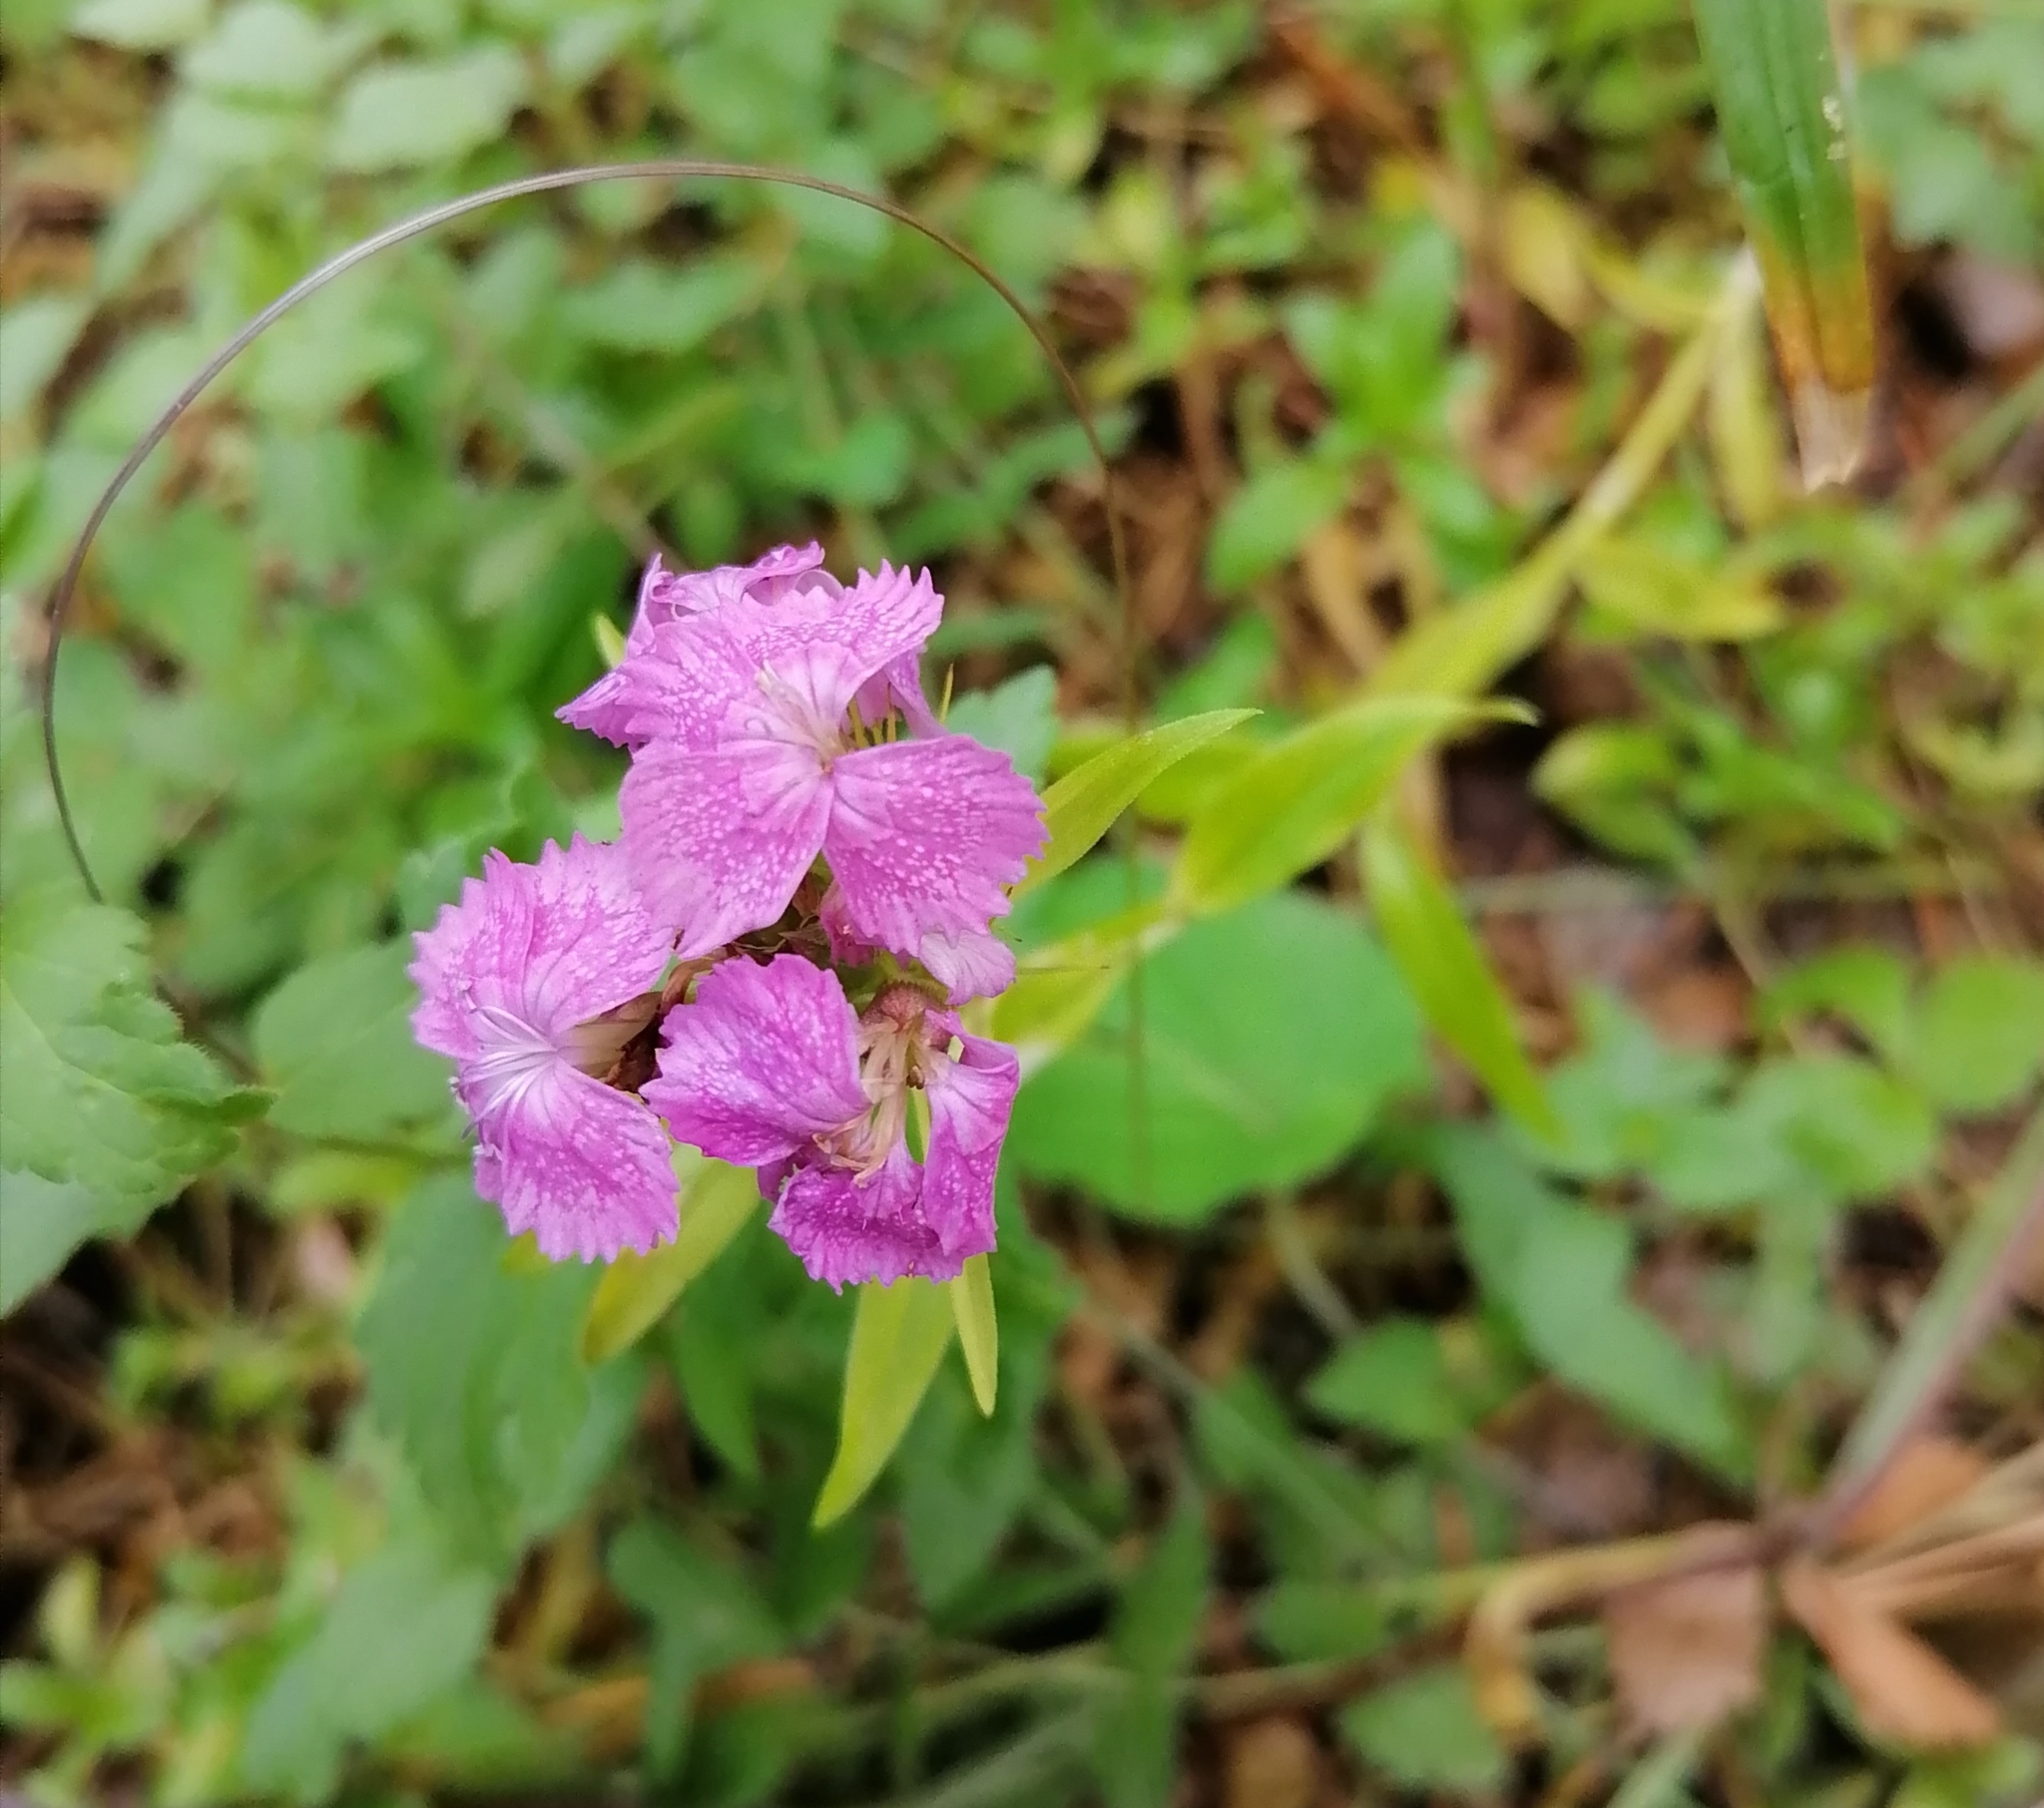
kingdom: Plantae
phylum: Tracheophyta
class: Magnoliopsida
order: Caryophyllales
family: Caryophyllaceae
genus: Dianthus
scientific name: Dianthus barbatus
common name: Sweet-william
